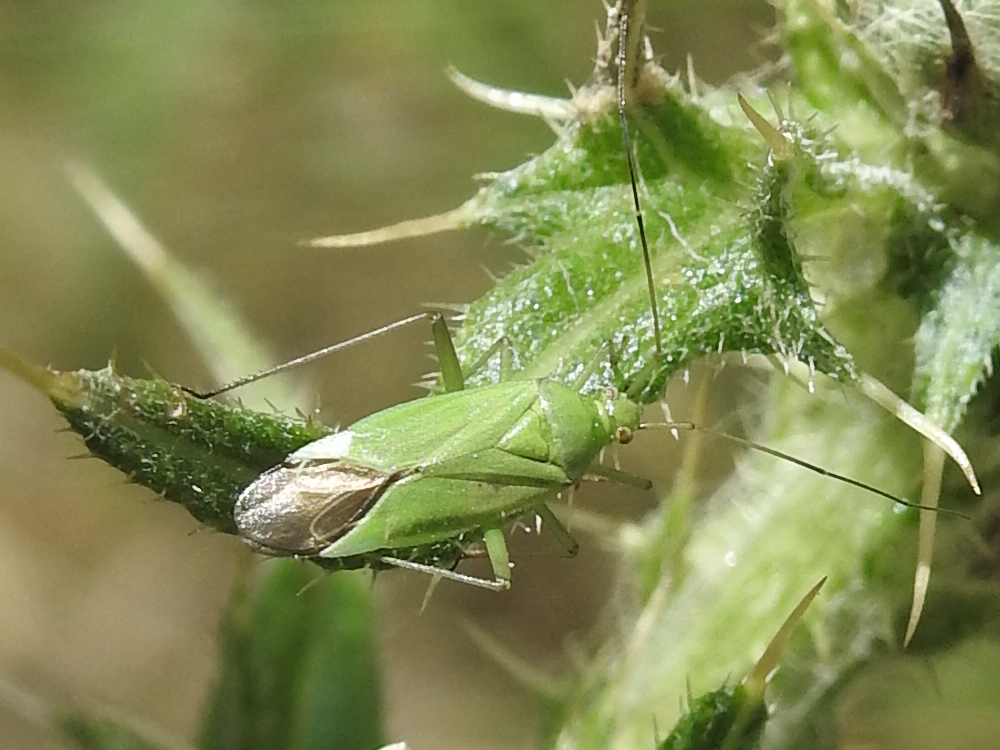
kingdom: Animalia
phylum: Arthropoda
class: Insecta
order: Hemiptera
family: Miridae
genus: Calocoris
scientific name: Calocoris affinis
